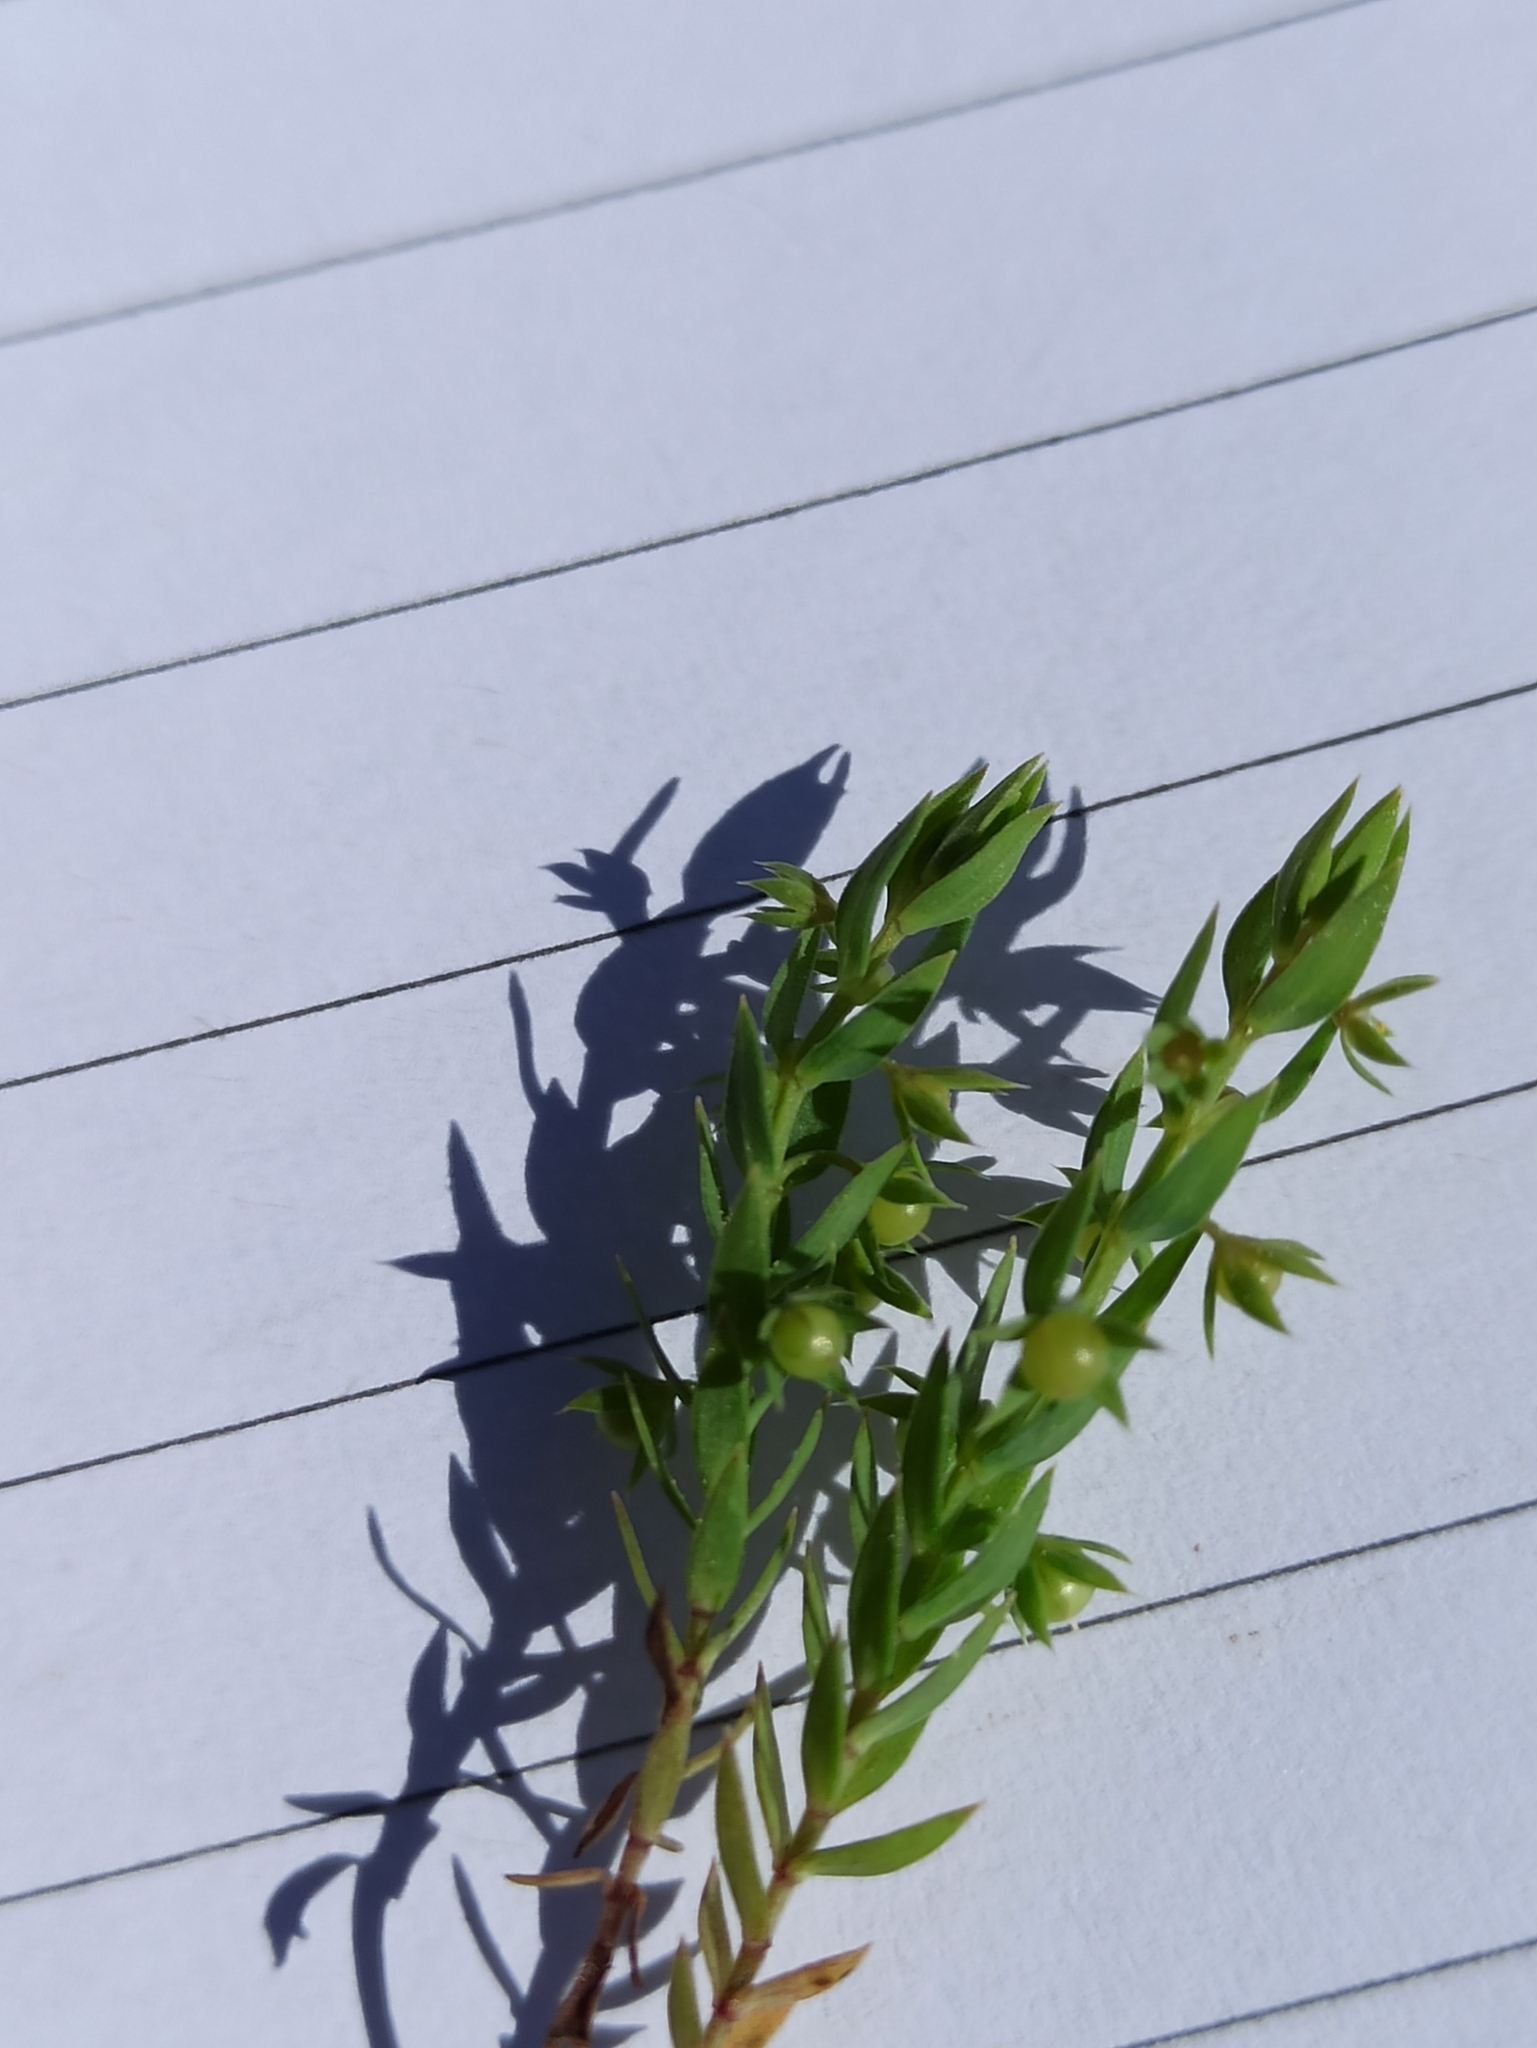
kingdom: Plantae
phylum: Tracheophyta
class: Magnoliopsida
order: Ericales
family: Primulaceae
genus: Lysimachia
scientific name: Lysimachia linum-stellatum
